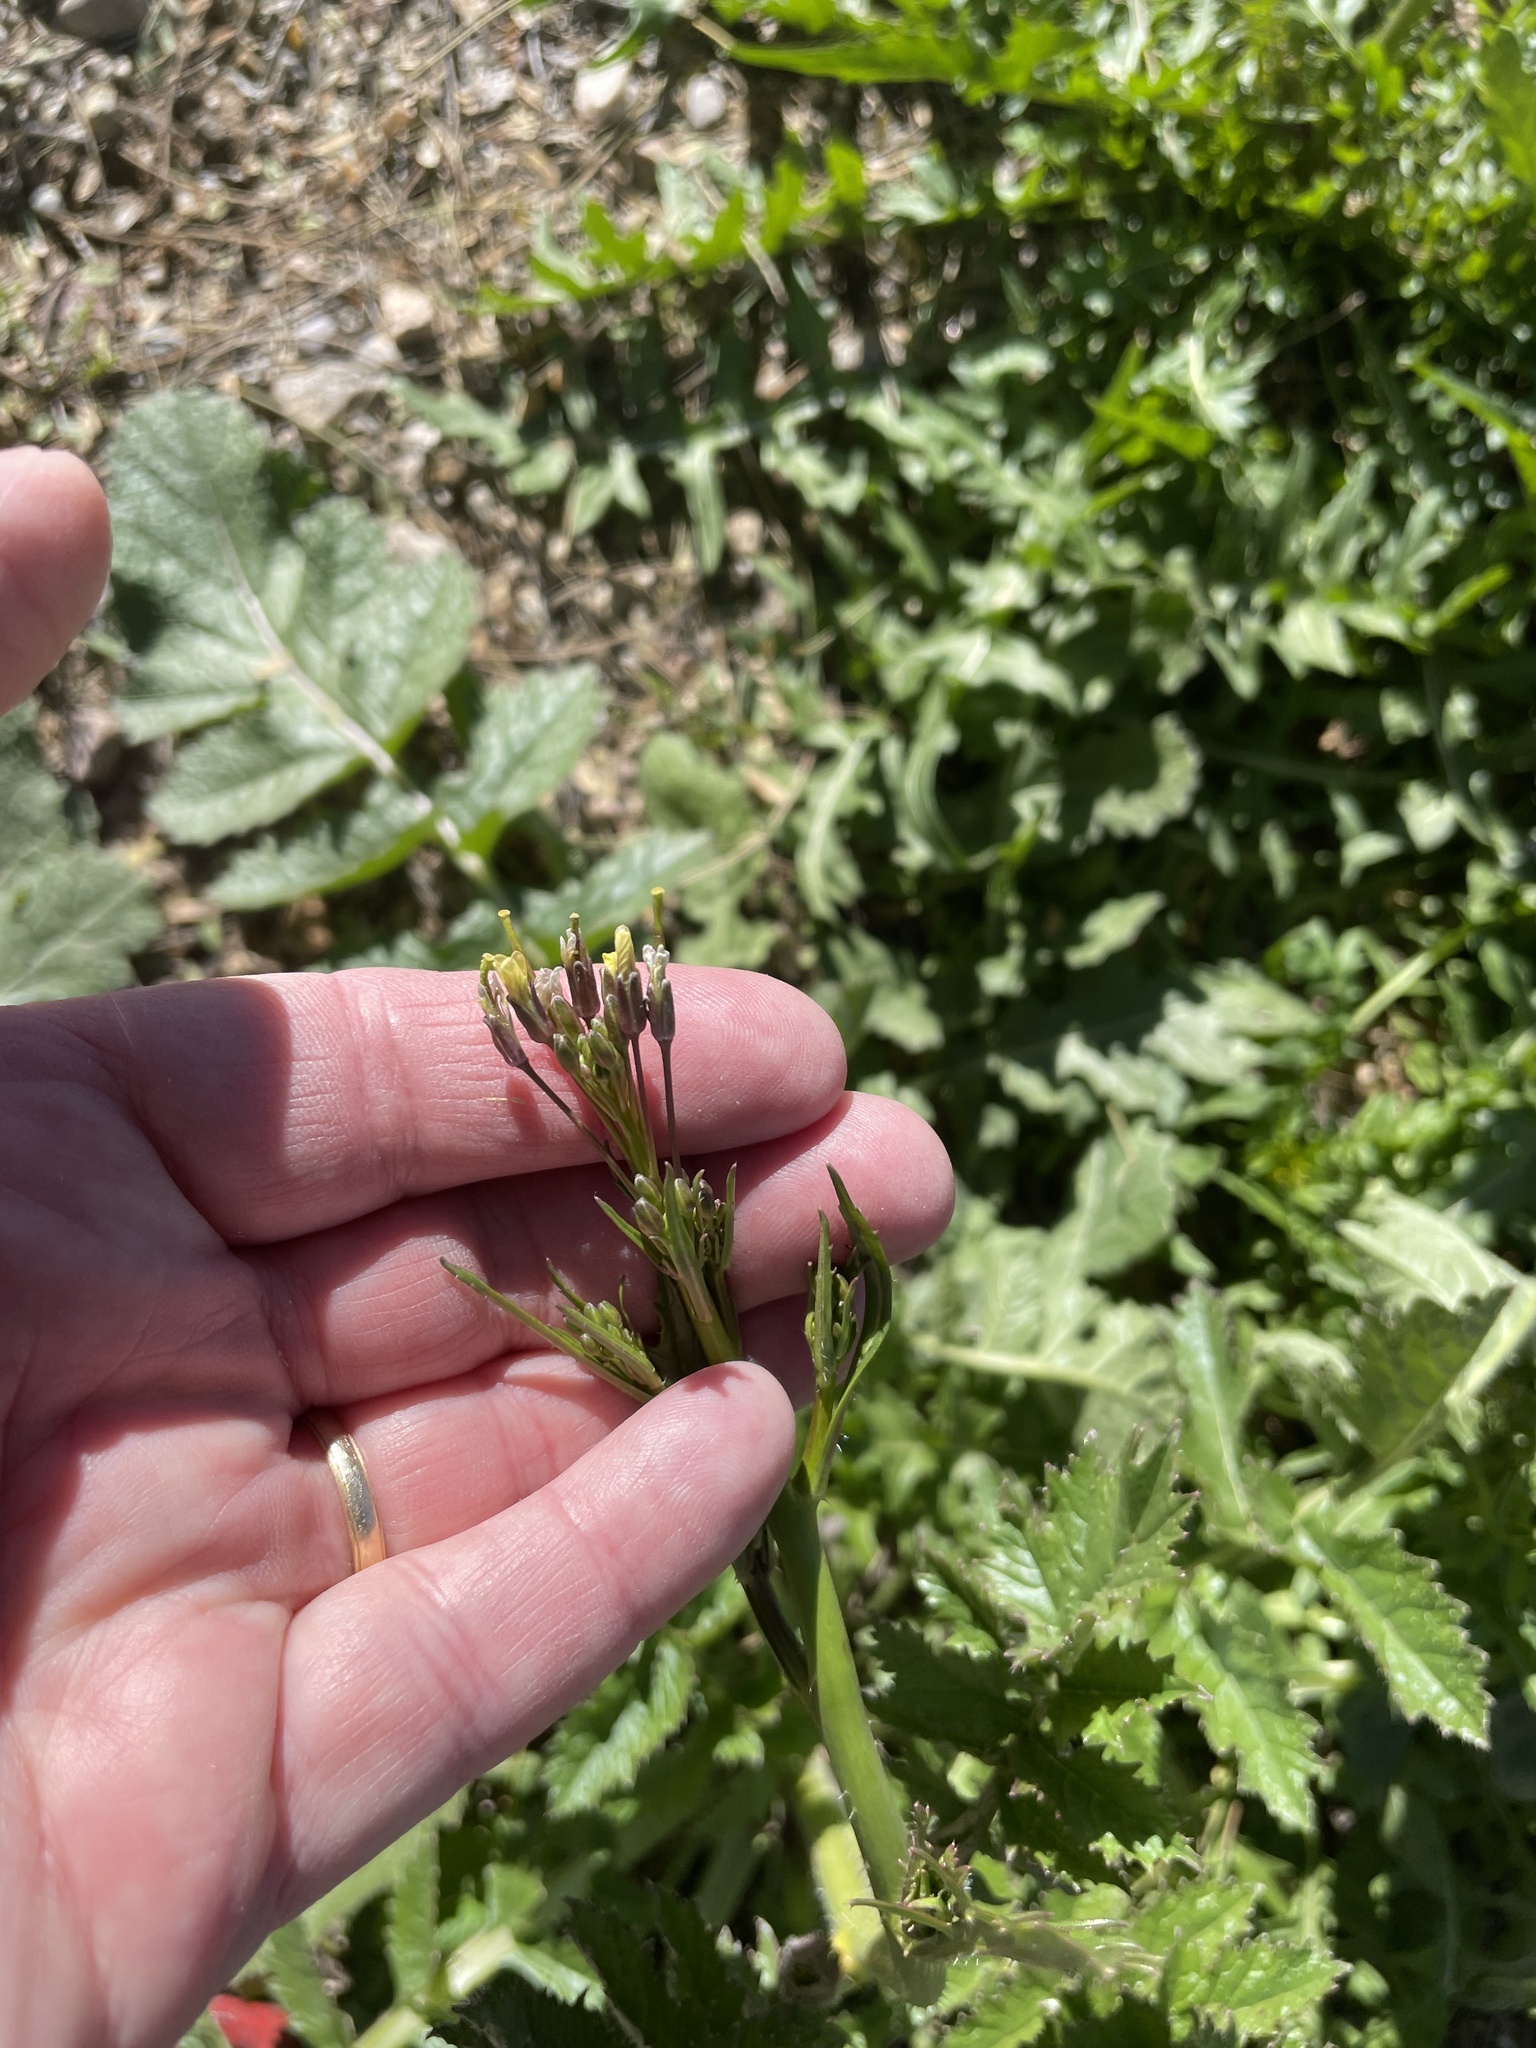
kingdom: Plantae
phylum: Tracheophyta
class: Magnoliopsida
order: Brassicales
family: Brassicaceae
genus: Brassica
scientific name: Brassica tournefortii
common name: Pale cabbage
